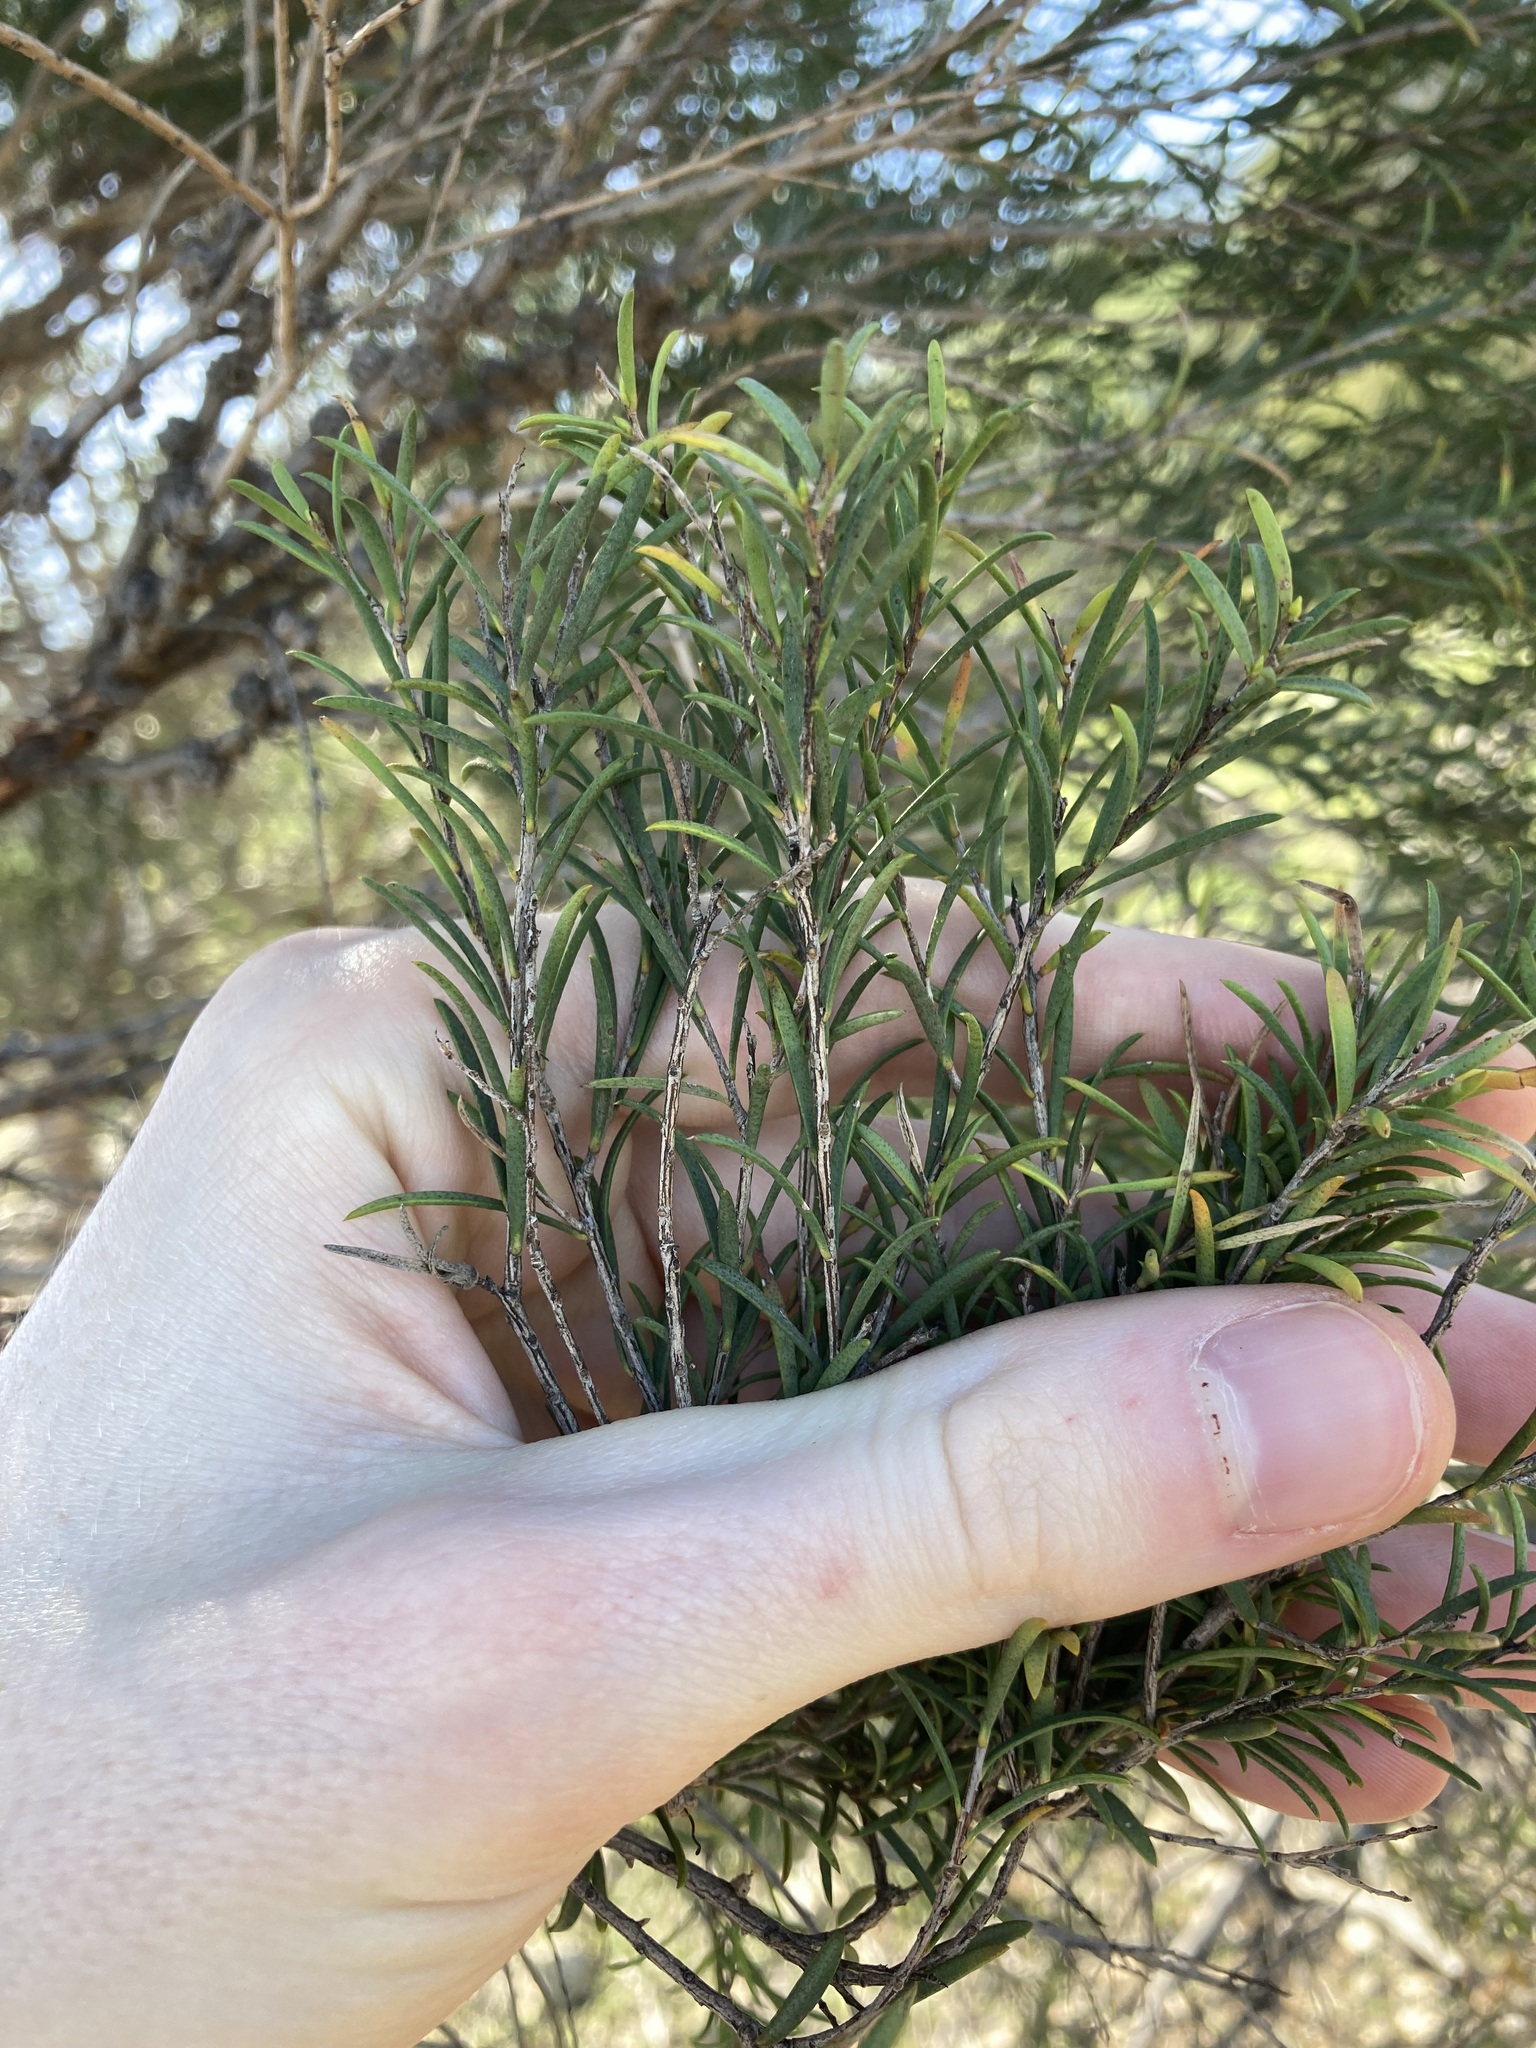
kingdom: Plantae
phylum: Tracheophyta
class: Magnoliopsida
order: Myrtales
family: Myrtaceae
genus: Melaleuca
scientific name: Melaleuca acutifolia
